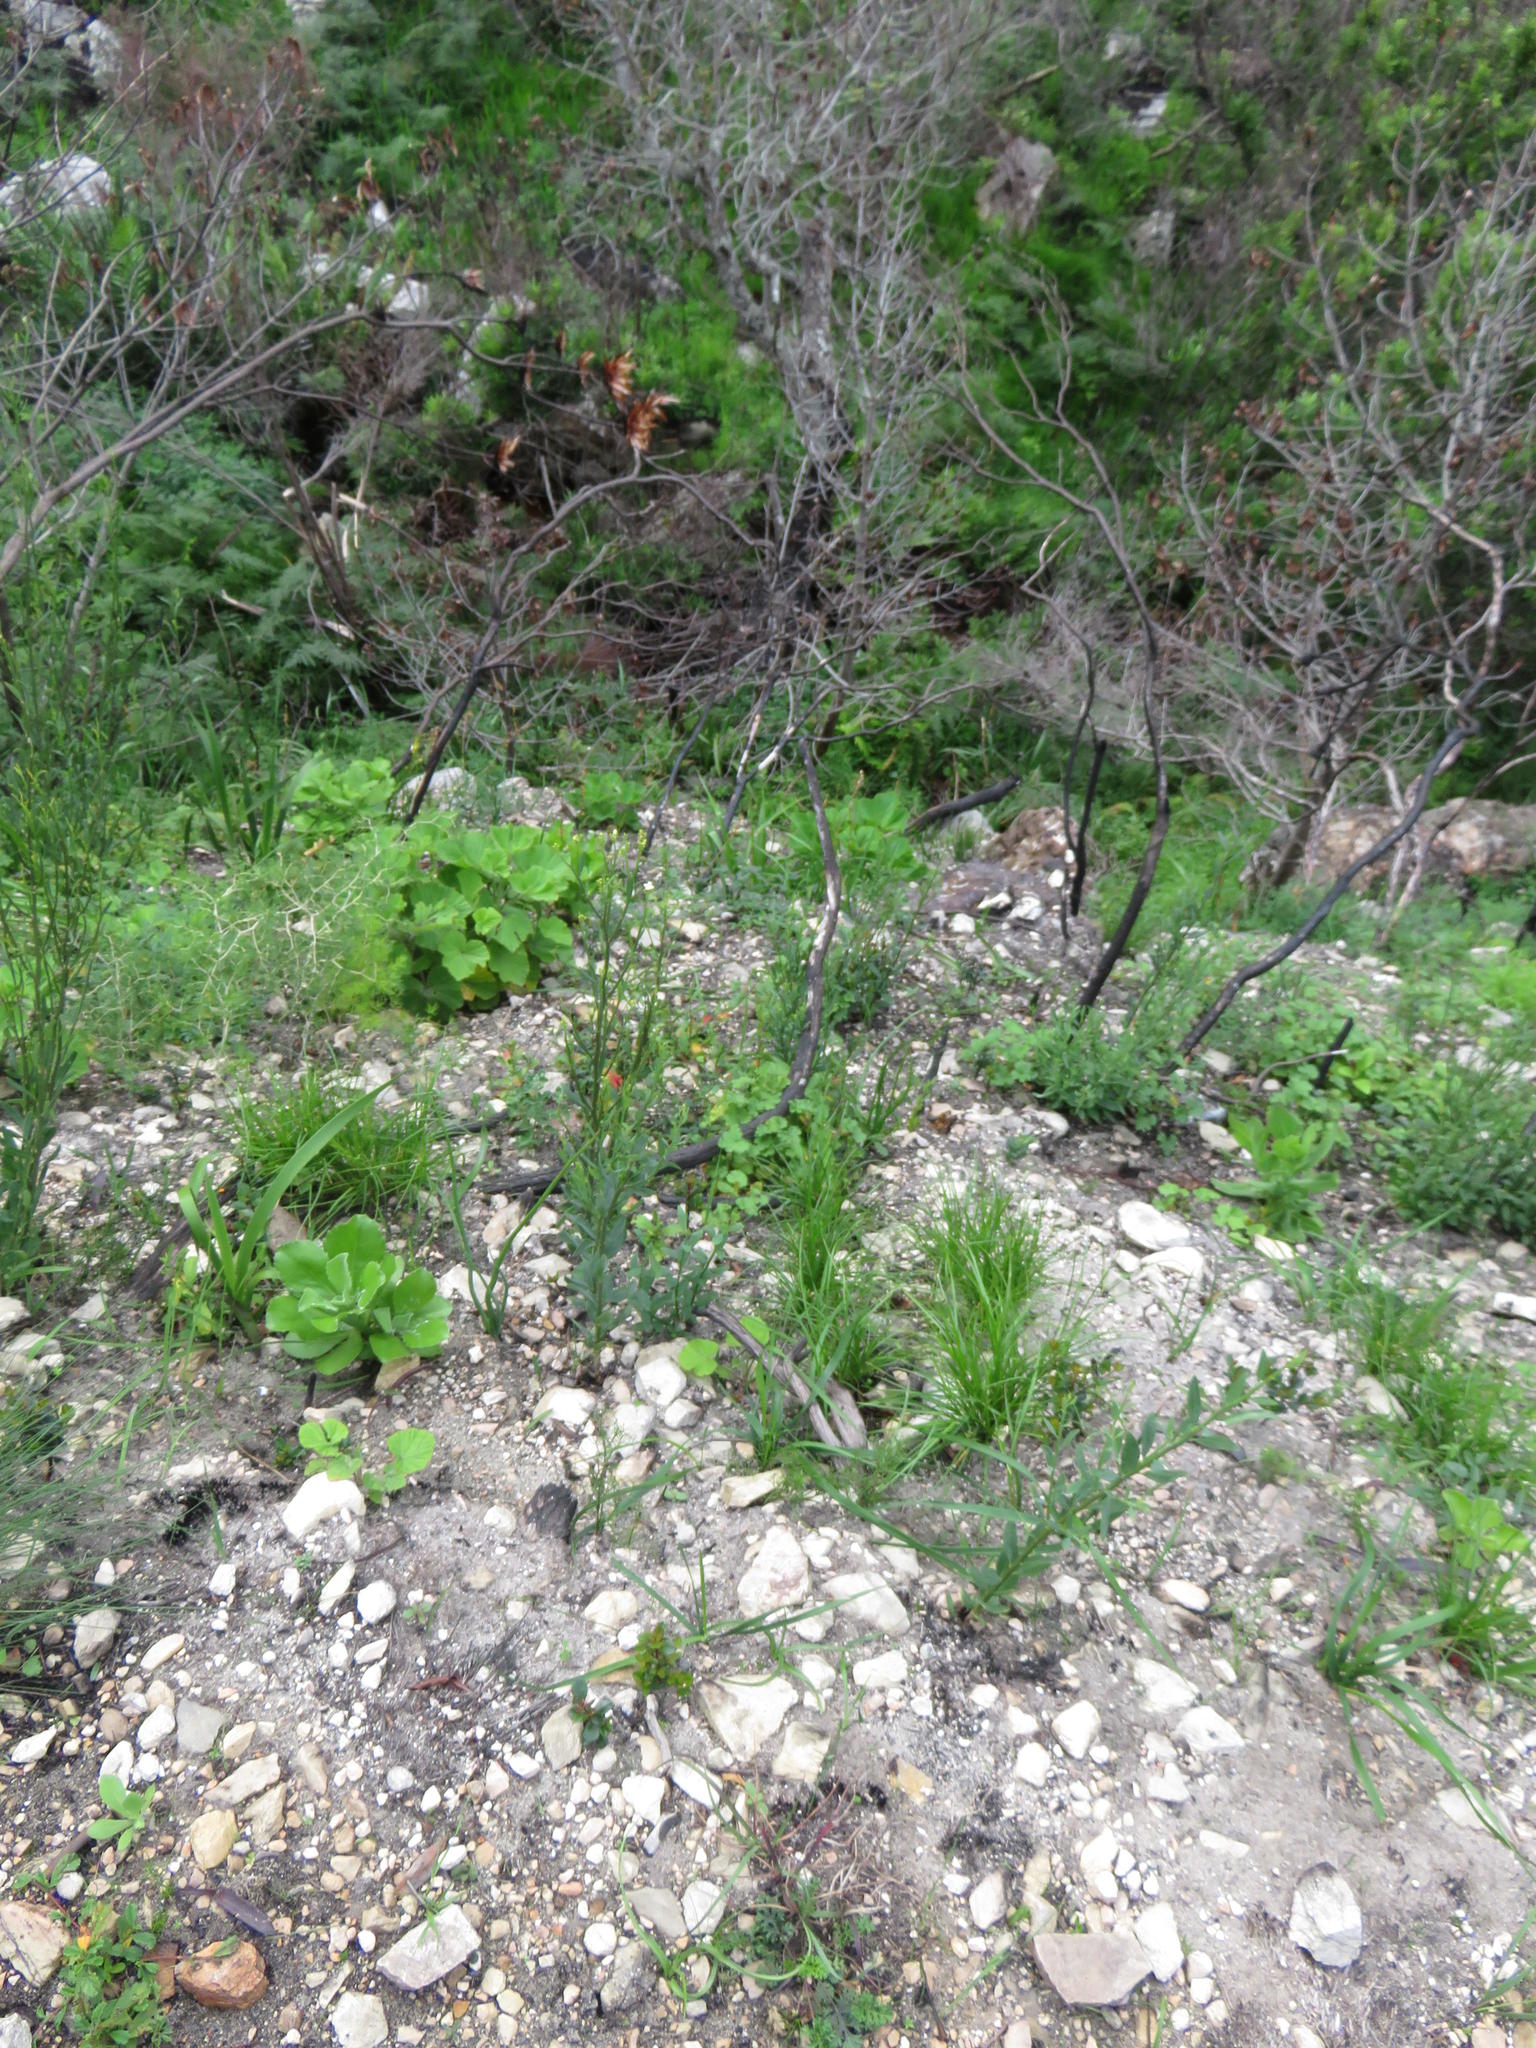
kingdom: Plantae
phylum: Tracheophyta
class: Magnoliopsida
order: Solanales
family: Montiniaceae
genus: Montinia
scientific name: Montinia caryophyllacea
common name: Wild clove-bush
